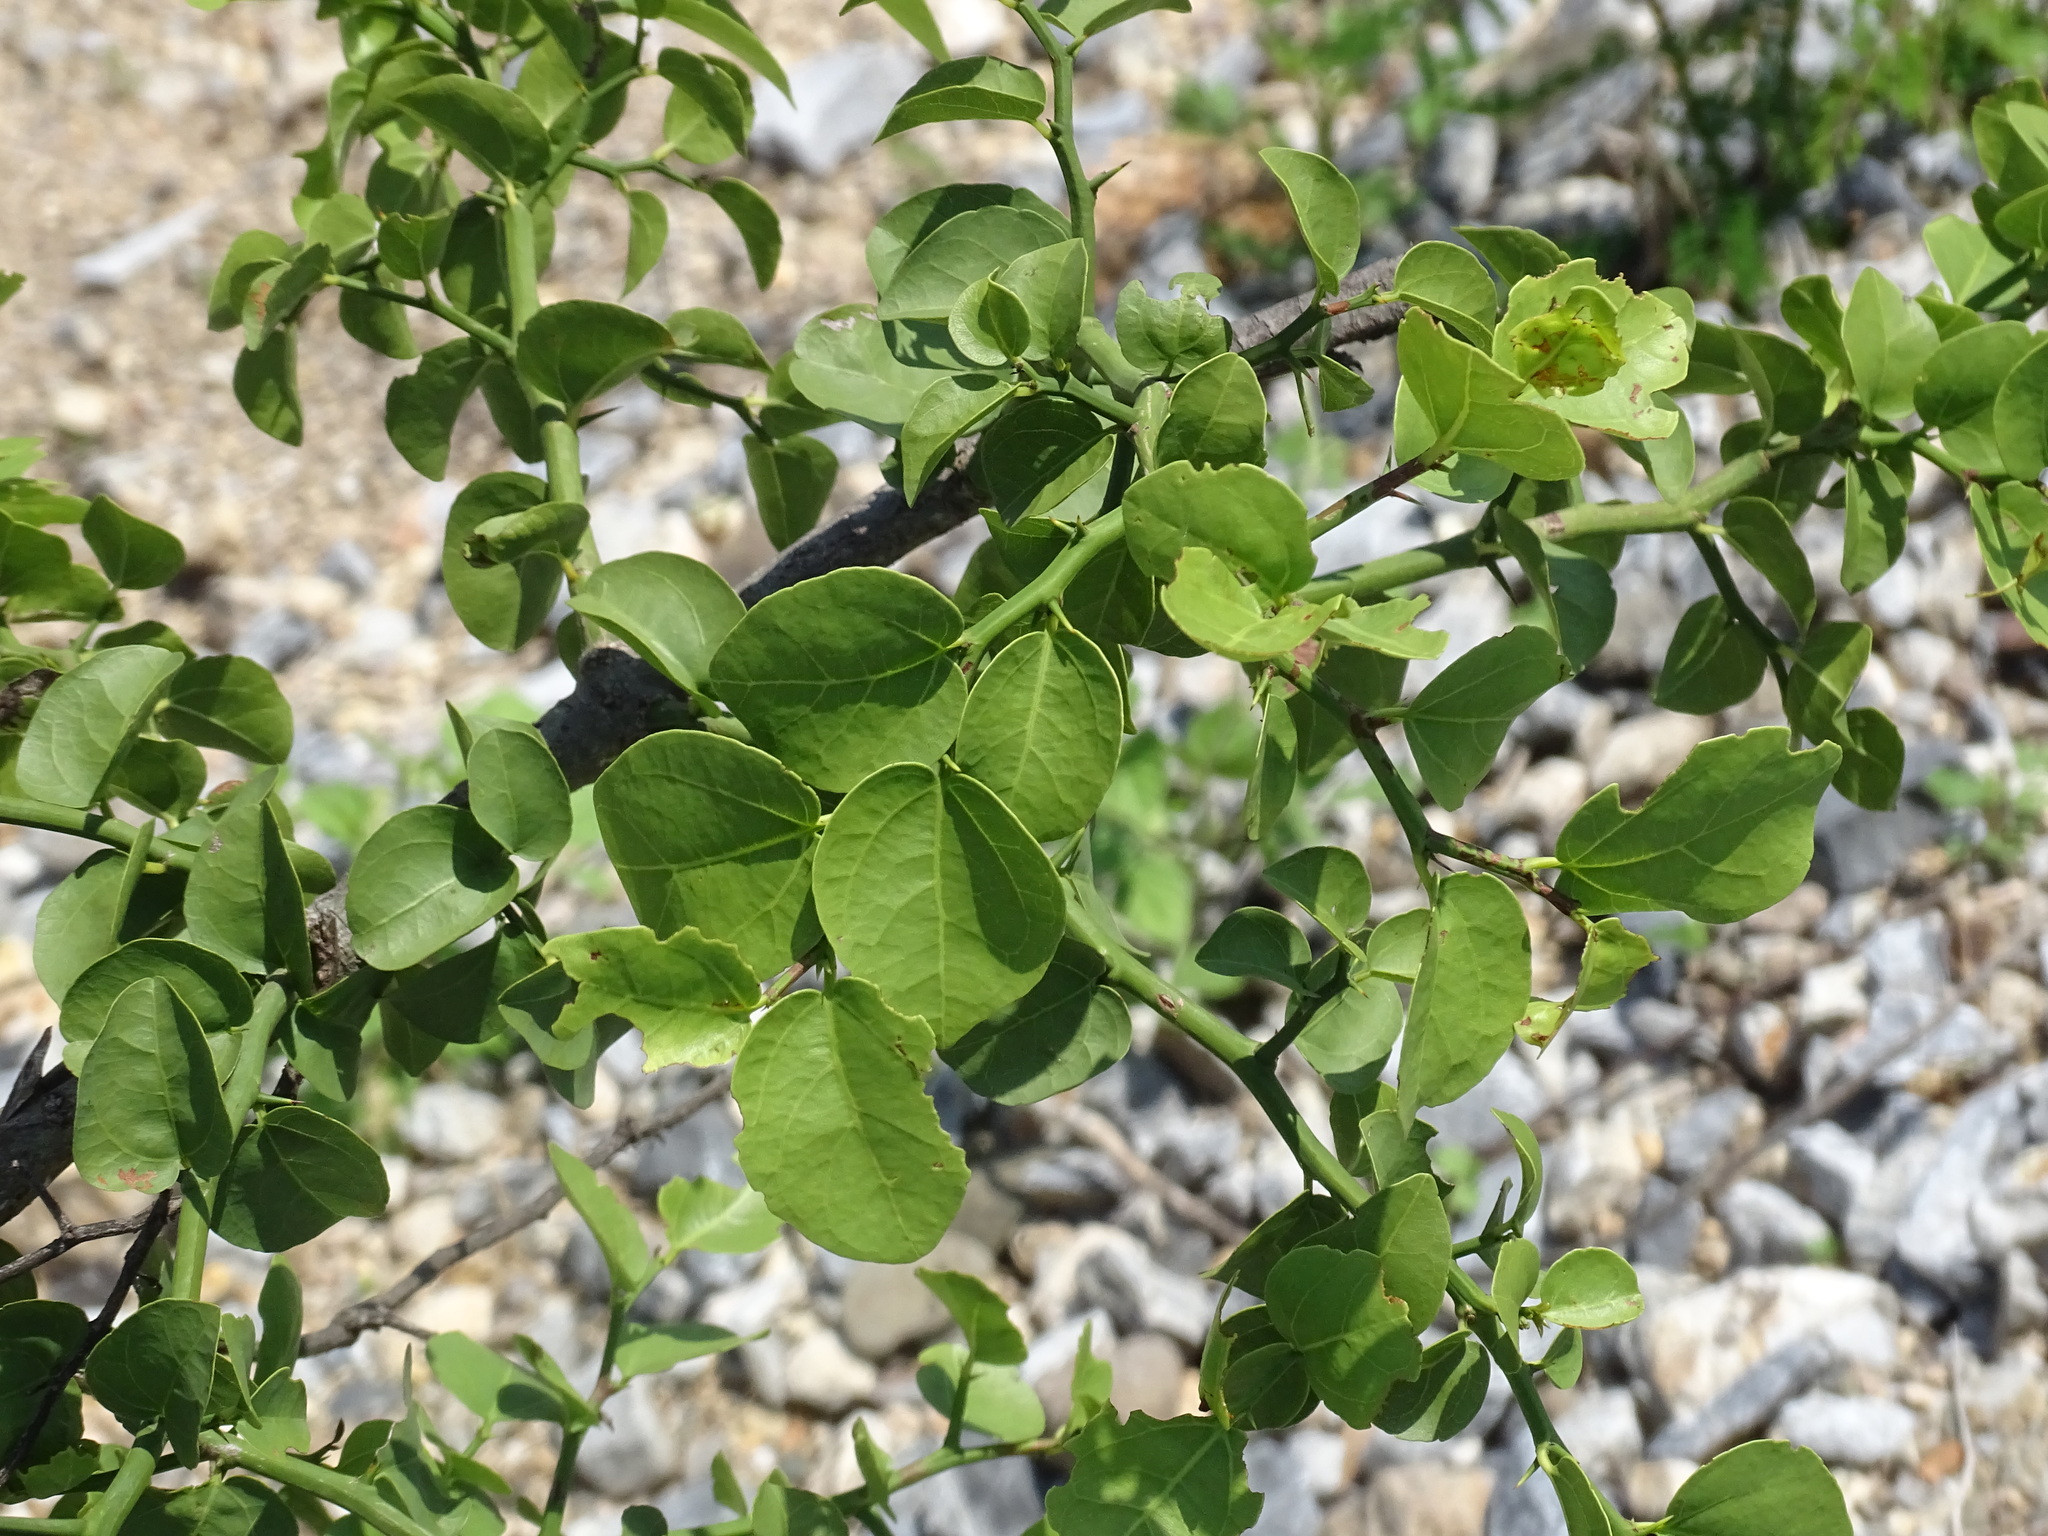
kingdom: Plantae
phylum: Tracheophyta
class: Magnoliopsida
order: Rosales
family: Rhamnaceae
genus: Sarcomphalus
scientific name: Sarcomphalus amole
